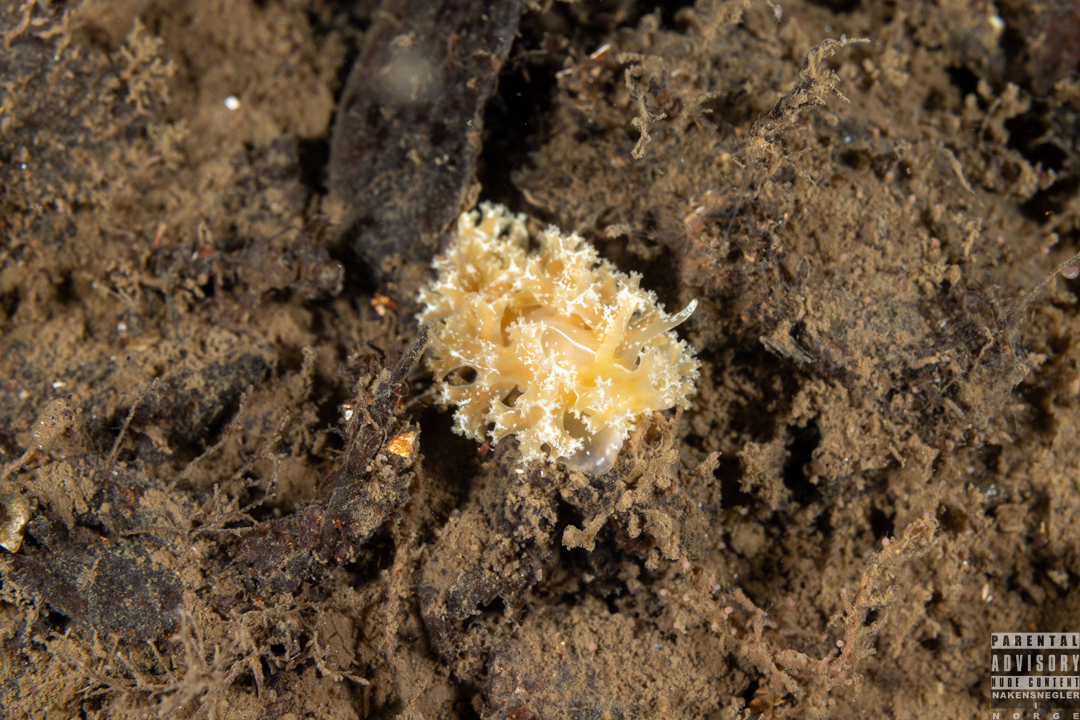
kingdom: Animalia
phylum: Mollusca
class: Gastropoda
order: Nudibranchia
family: Heroidae
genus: Hero
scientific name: Hero formosa
